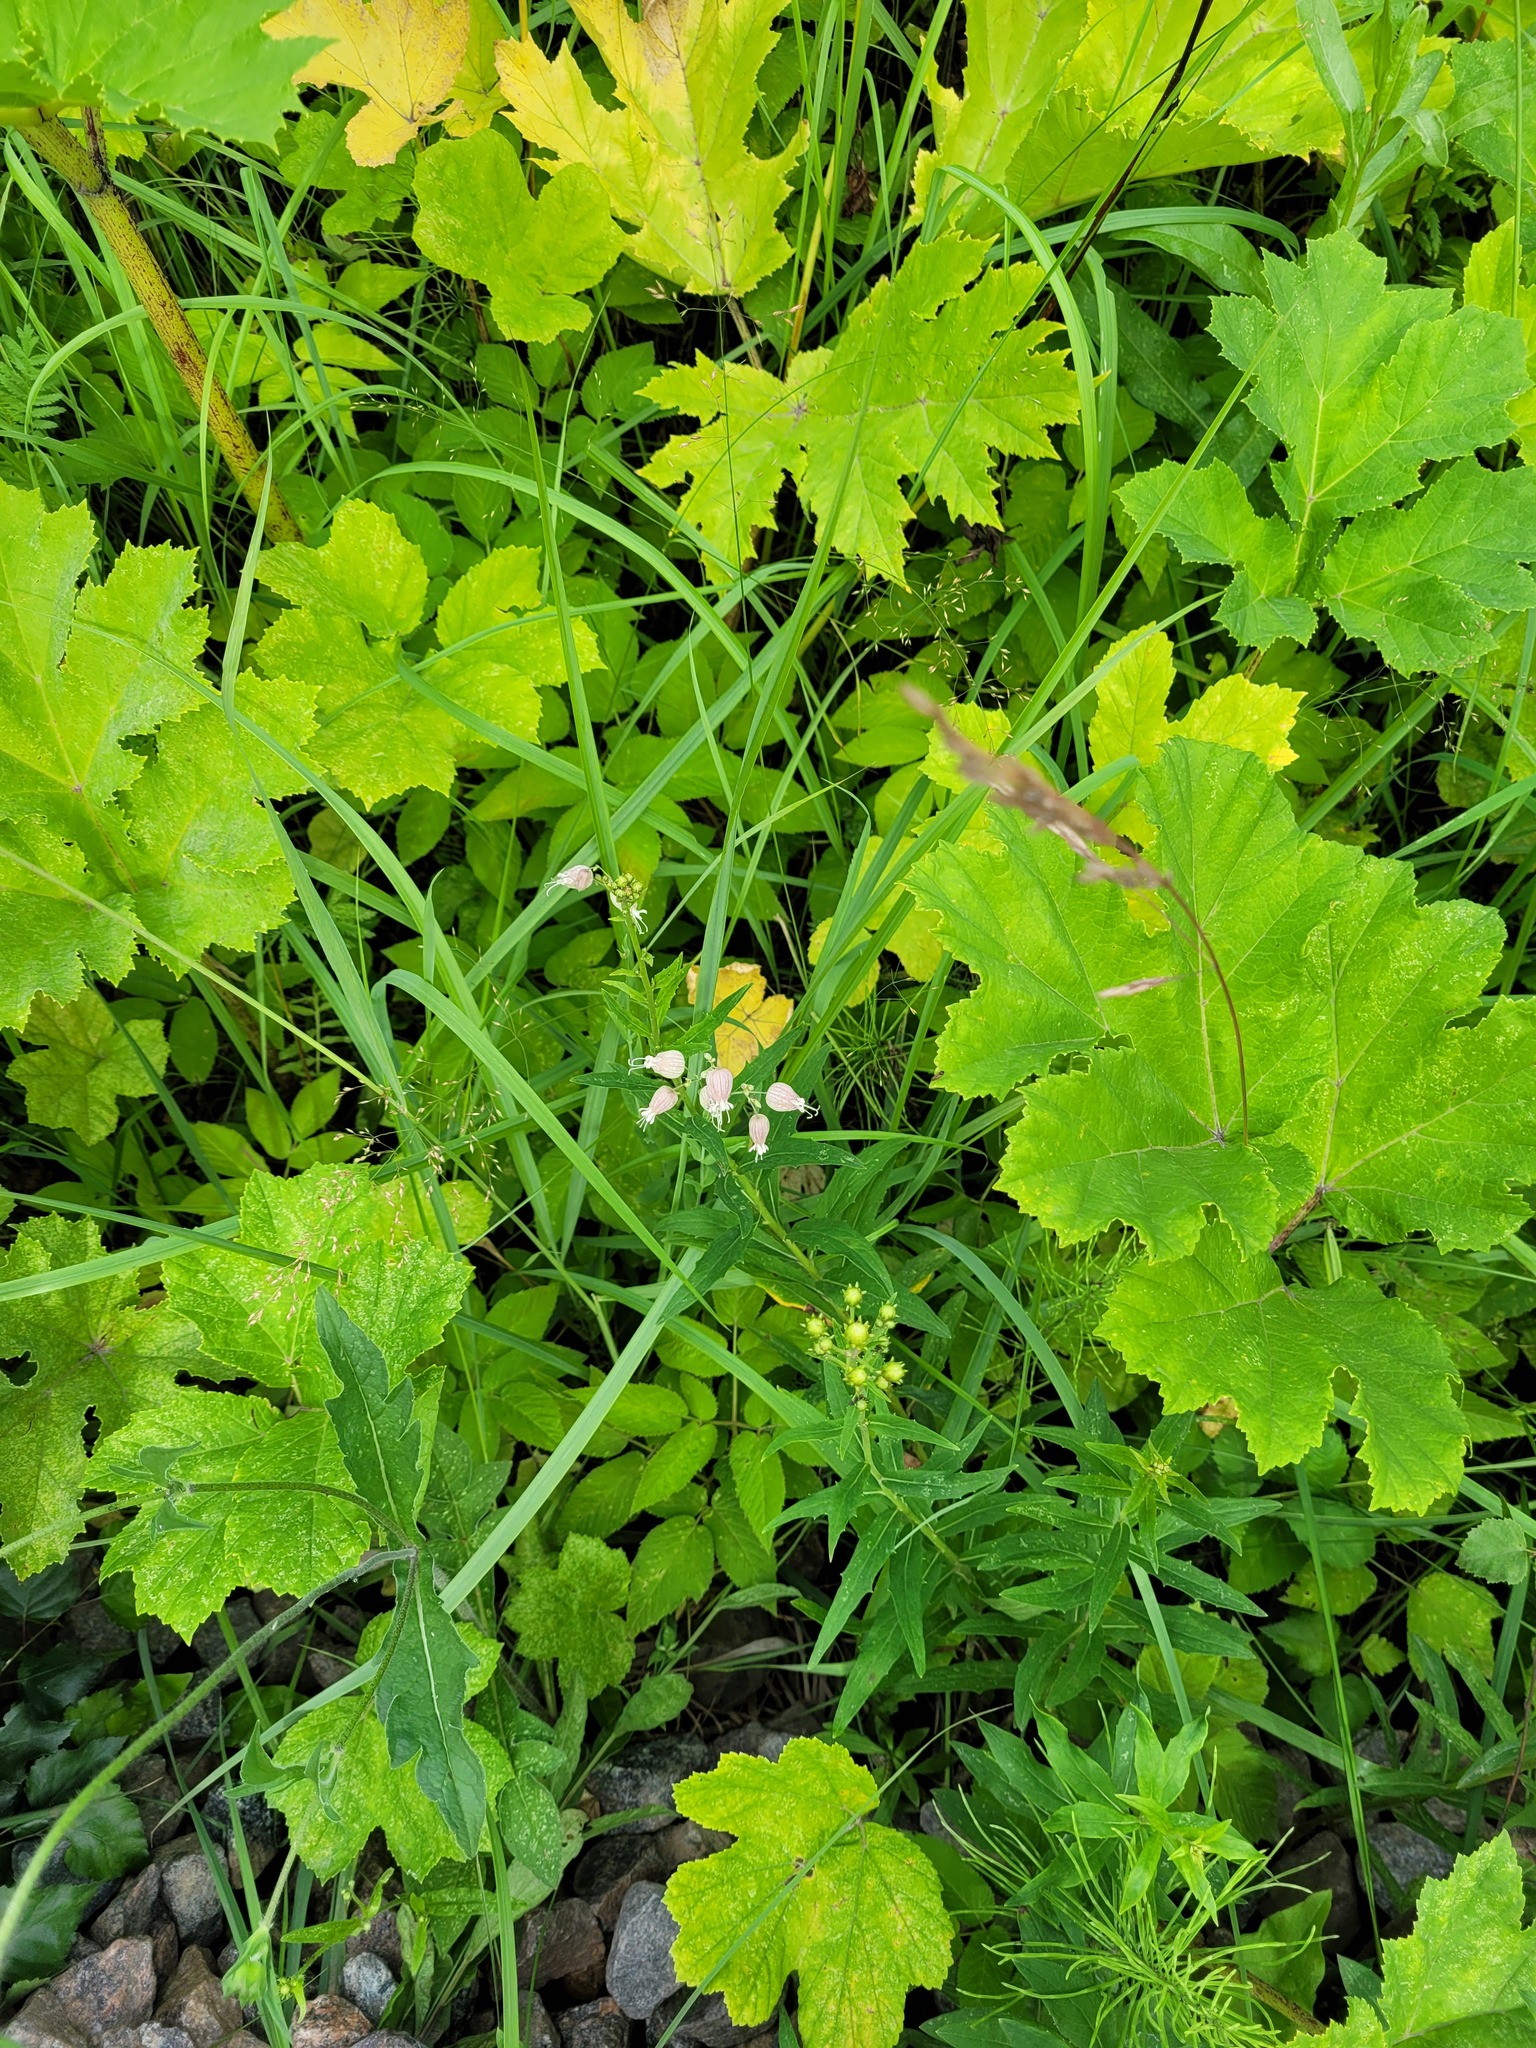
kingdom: Plantae
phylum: Tracheophyta
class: Magnoliopsida
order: Caryophyllales
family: Caryophyllaceae
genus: Silene
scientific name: Silene vulgaris
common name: Bladder campion
